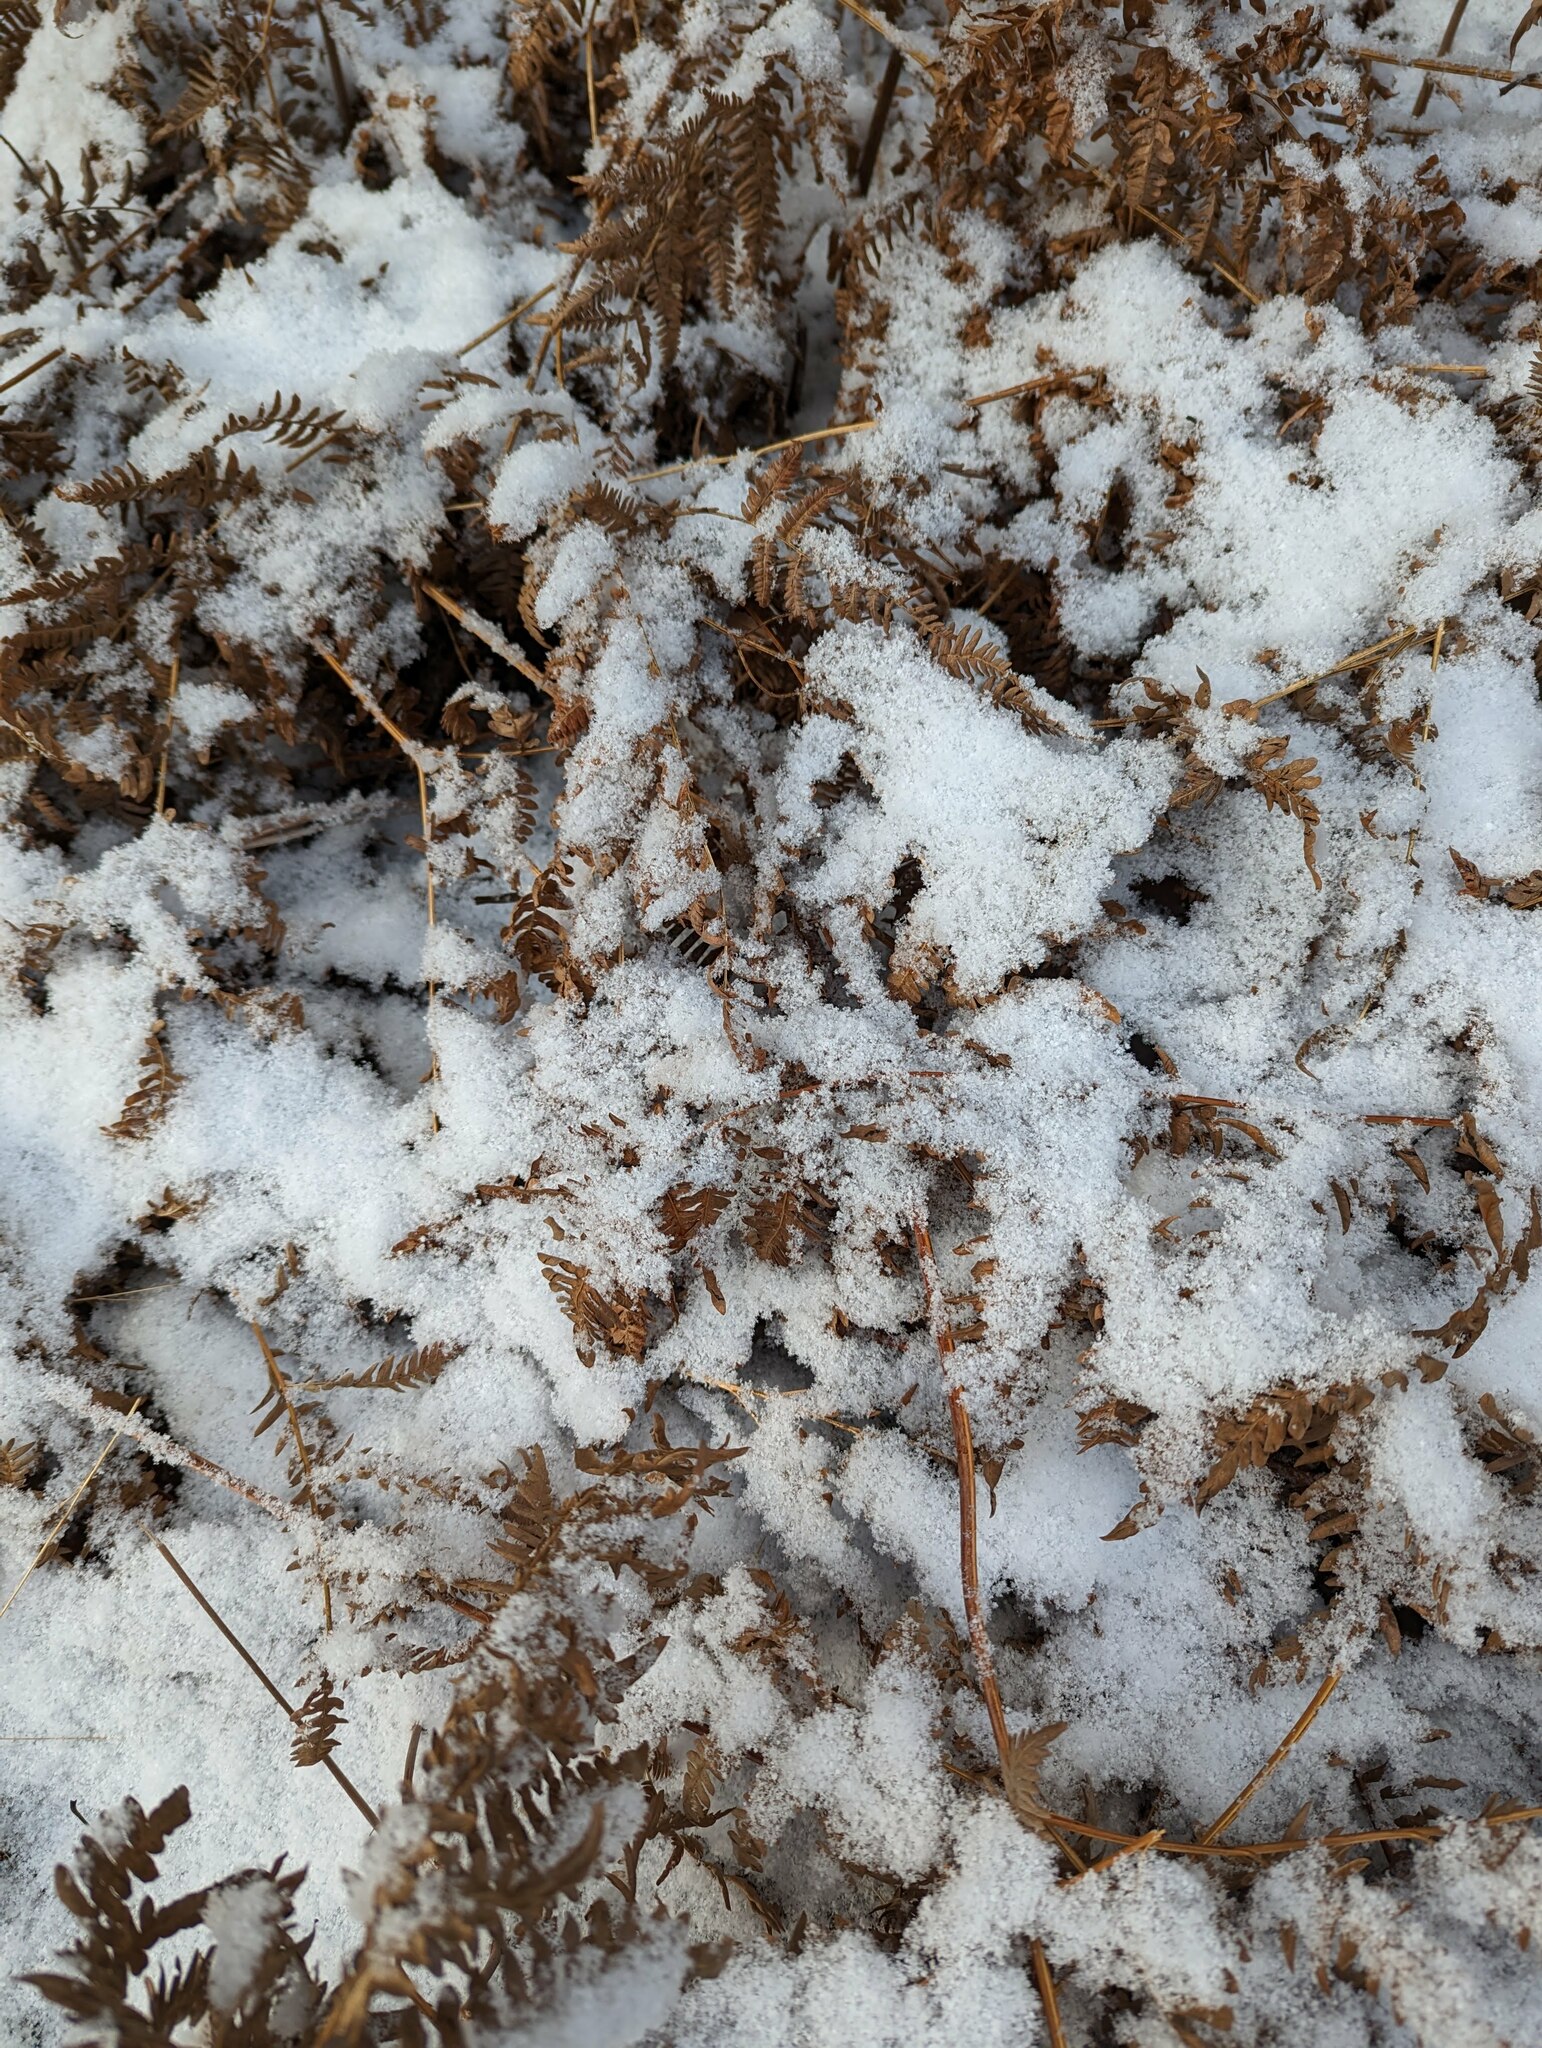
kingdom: Plantae
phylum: Tracheophyta
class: Polypodiopsida
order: Polypodiales
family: Dennstaedtiaceae
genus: Pteridium
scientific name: Pteridium aquilinum
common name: Bracken
